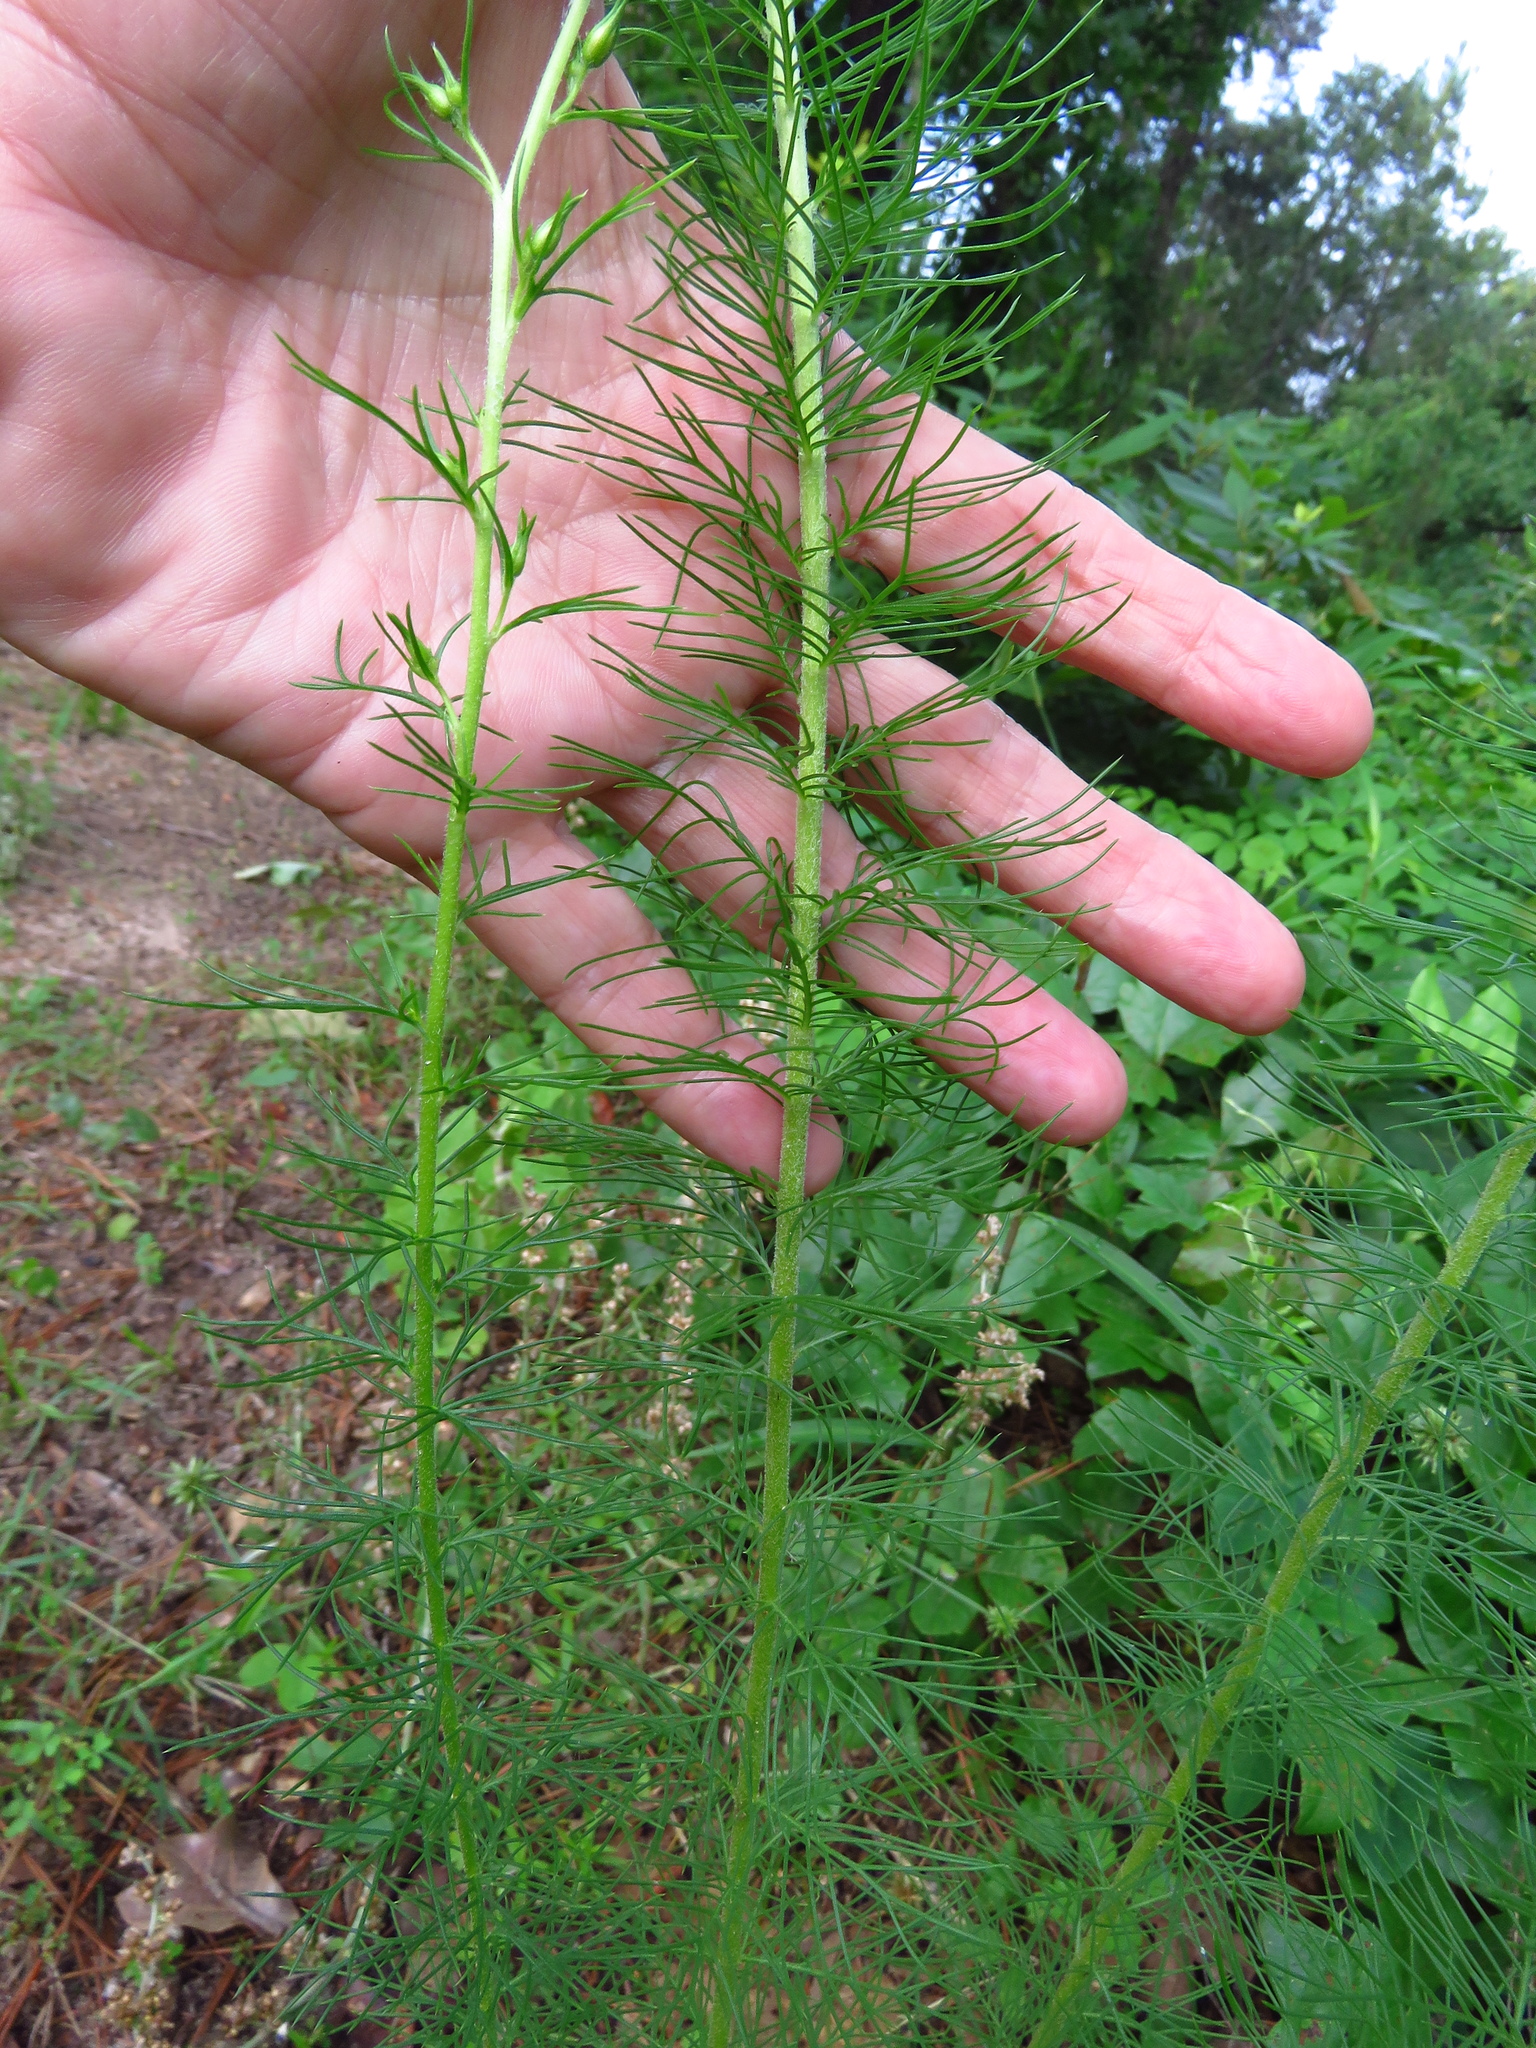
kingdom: Plantae
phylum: Tracheophyta
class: Magnoliopsida
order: Ericales
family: Polemoniaceae
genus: Ipomopsis
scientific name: Ipomopsis rubra
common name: Skyrocket
